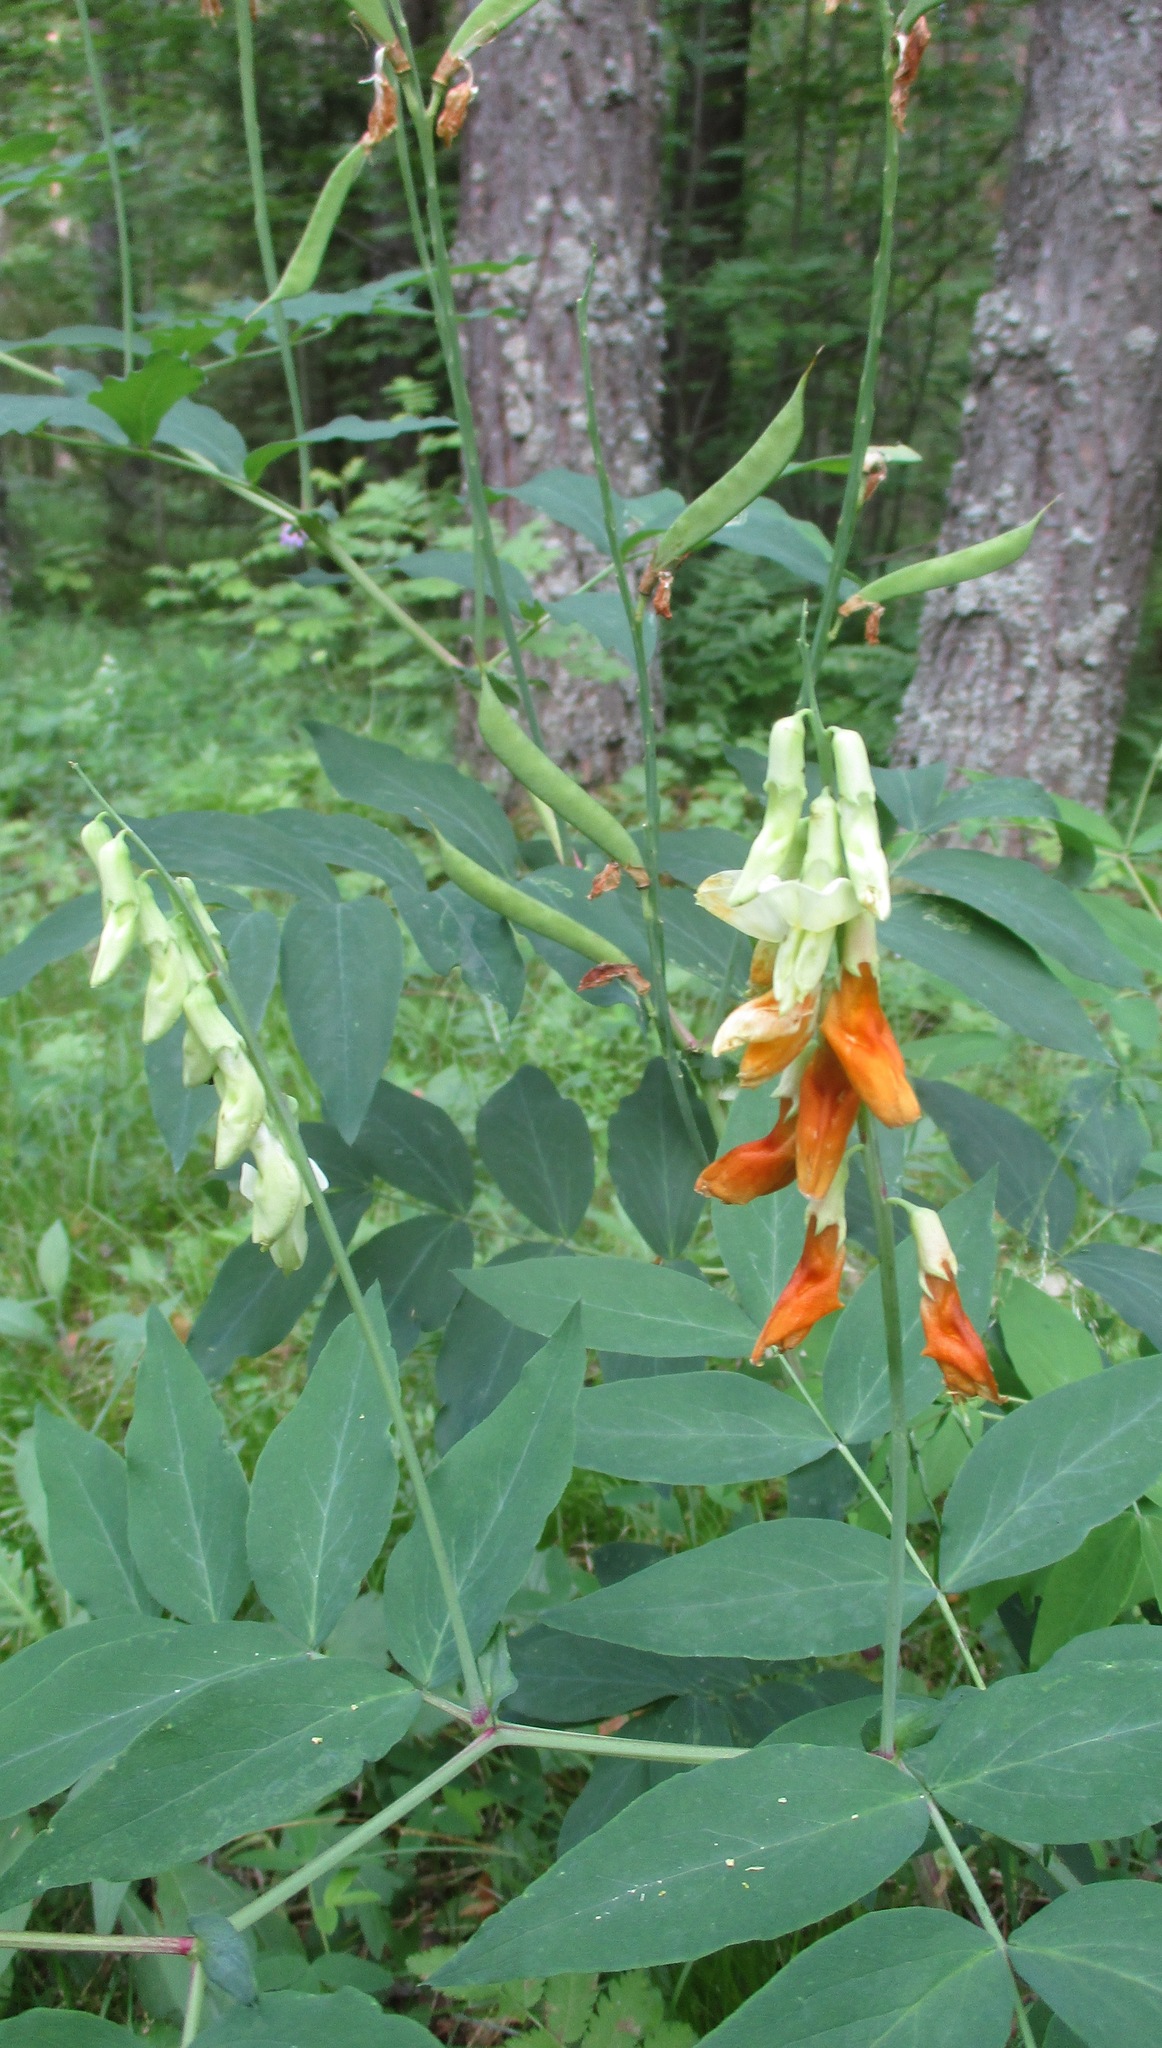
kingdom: Plantae
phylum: Tracheophyta
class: Magnoliopsida
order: Fabales
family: Fabaceae
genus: Lathyrus
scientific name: Lathyrus gmelinii
